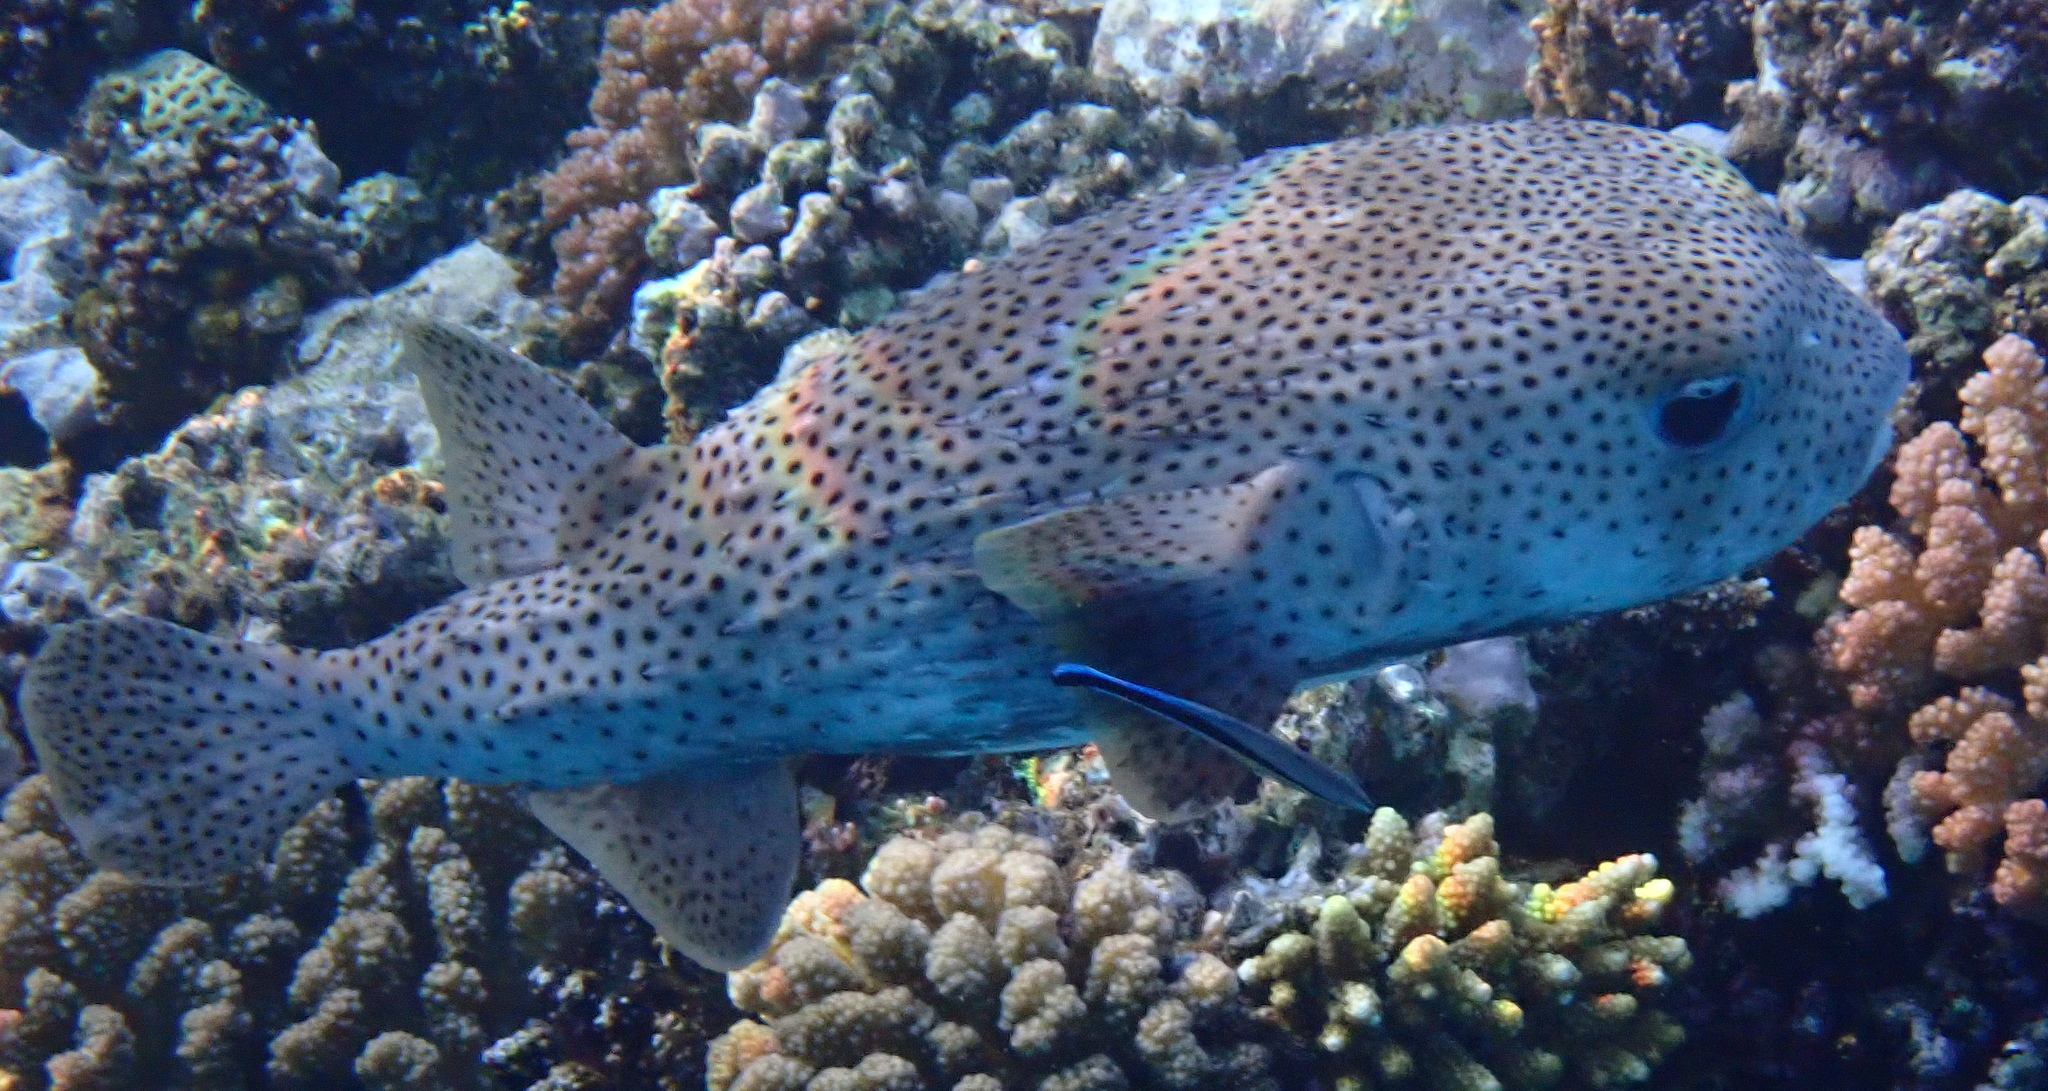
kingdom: Animalia
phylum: Chordata
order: Tetraodontiformes
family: Diodontidae
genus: Diodon
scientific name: Diodon hystrix
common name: Giant porcupinefish
